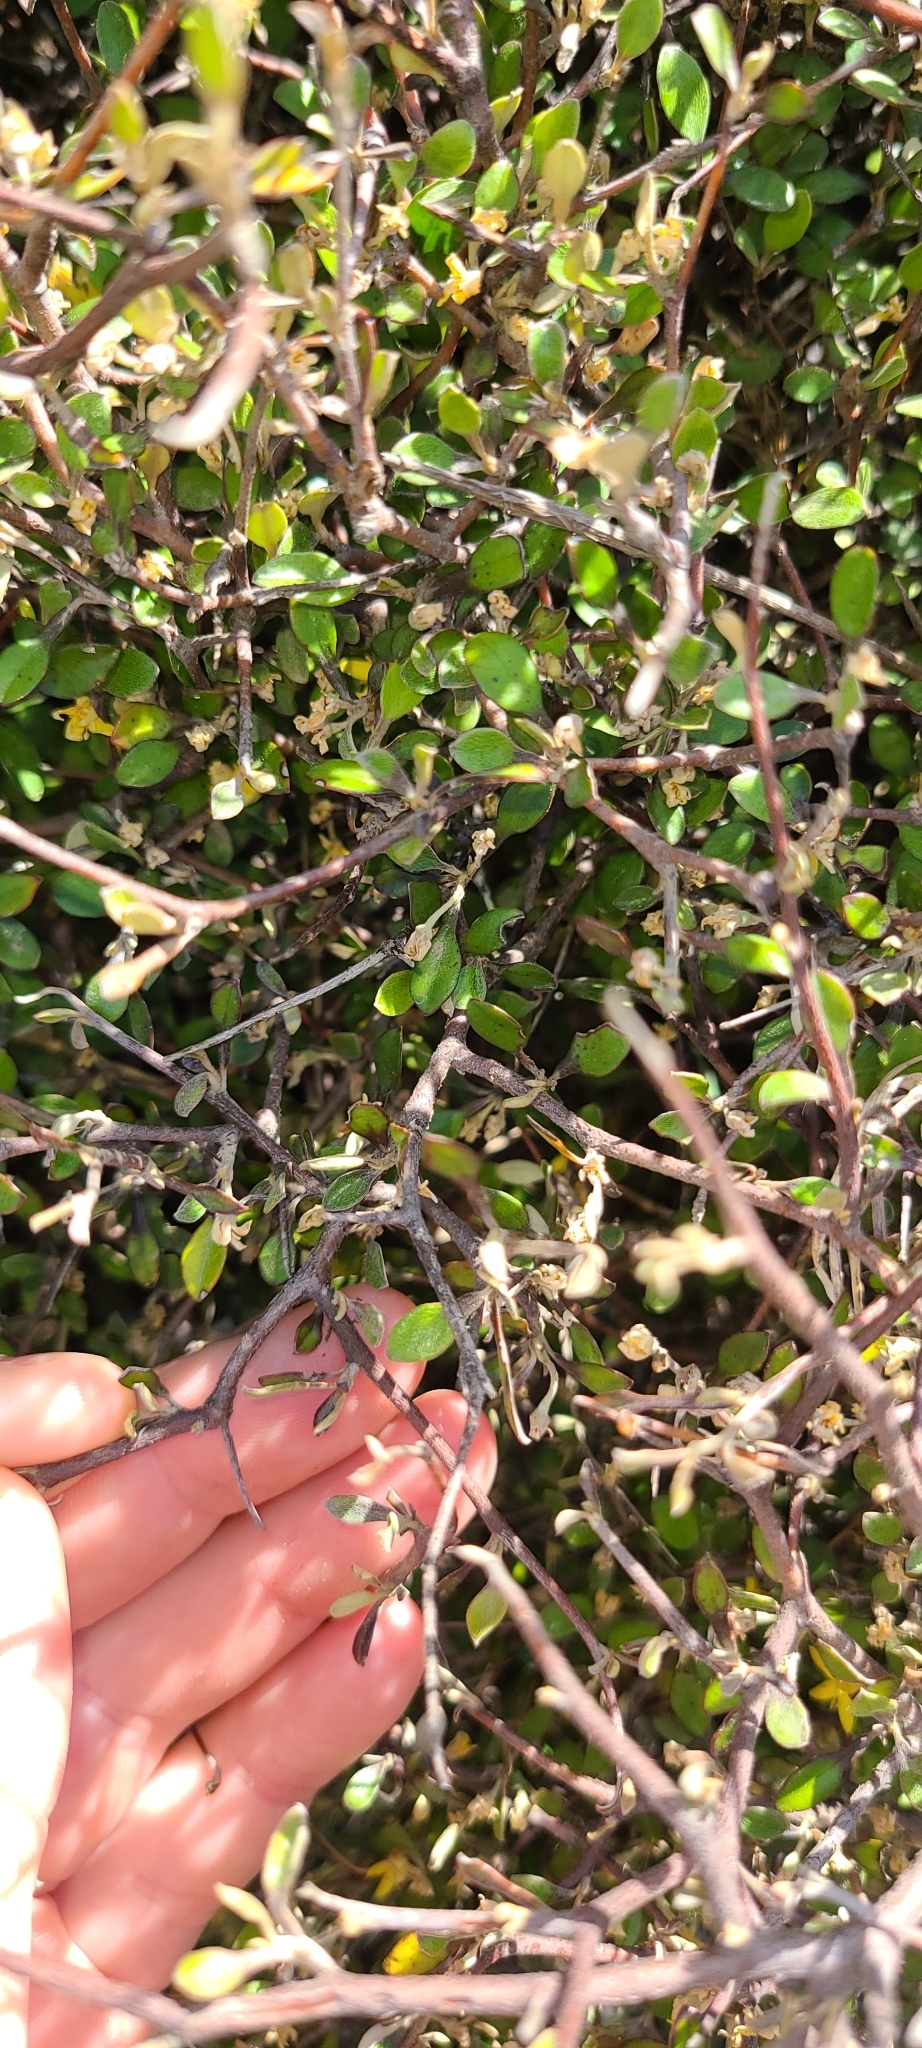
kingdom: Plantae
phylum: Tracheophyta
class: Magnoliopsida
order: Asterales
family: Argophyllaceae
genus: Corokia
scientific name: Corokia cotoneaster
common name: Wire nettingbush
